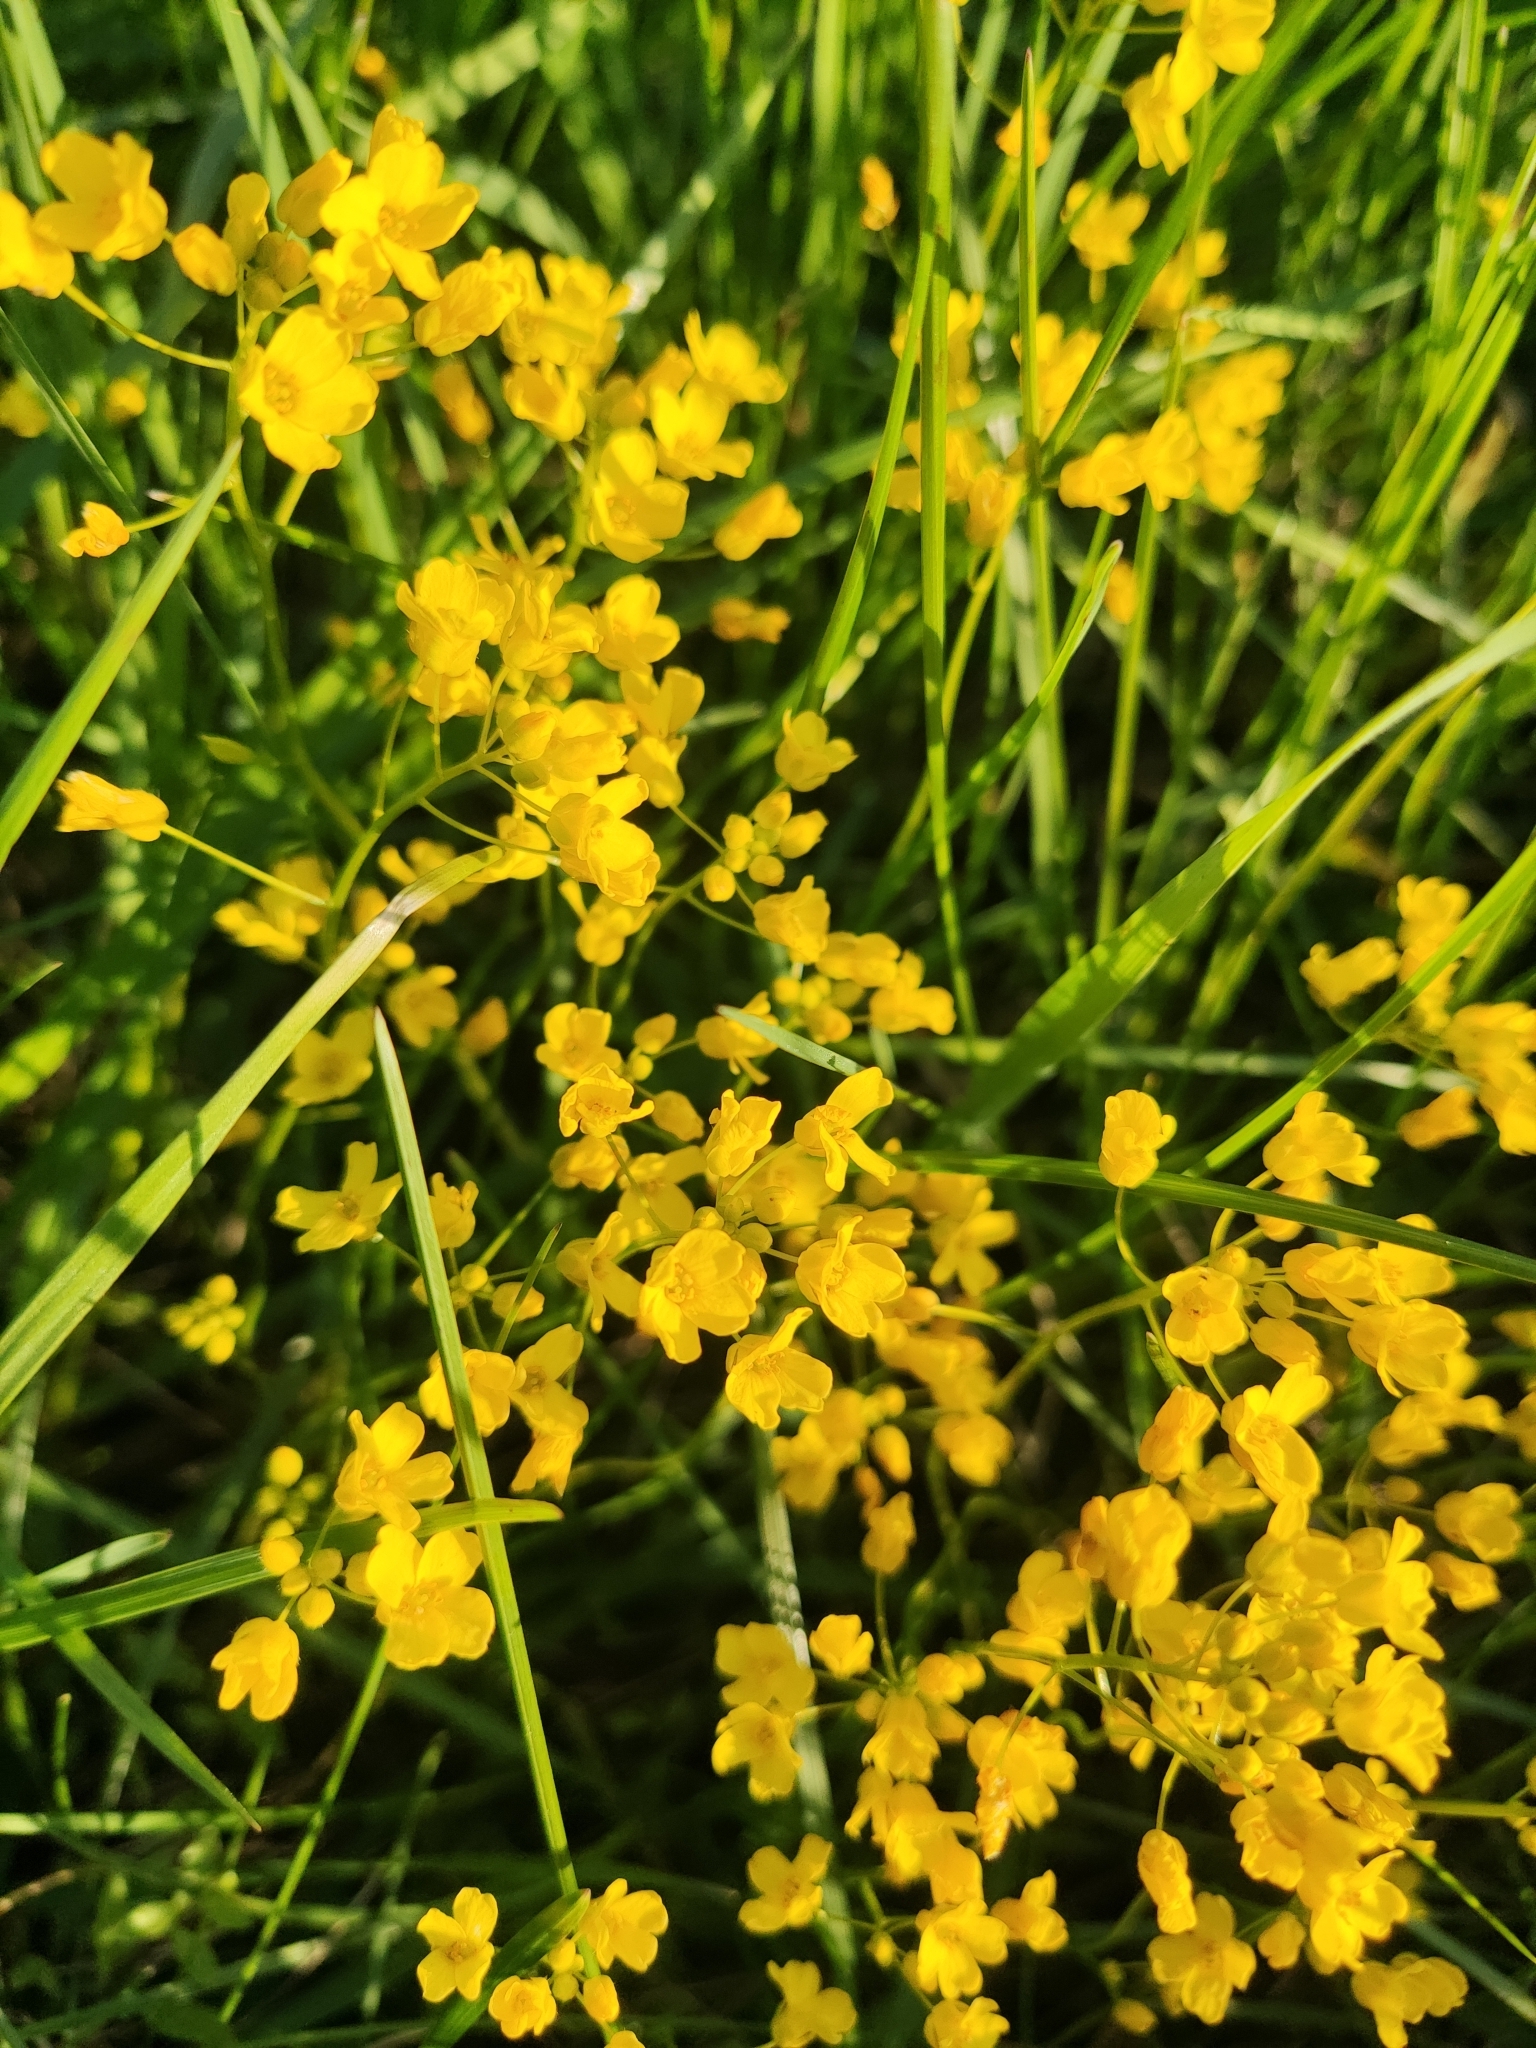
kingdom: Plantae
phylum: Tracheophyta
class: Magnoliopsida
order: Brassicales
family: Brassicaceae
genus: Draba
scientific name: Draba sibirica
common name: Siberian draba
